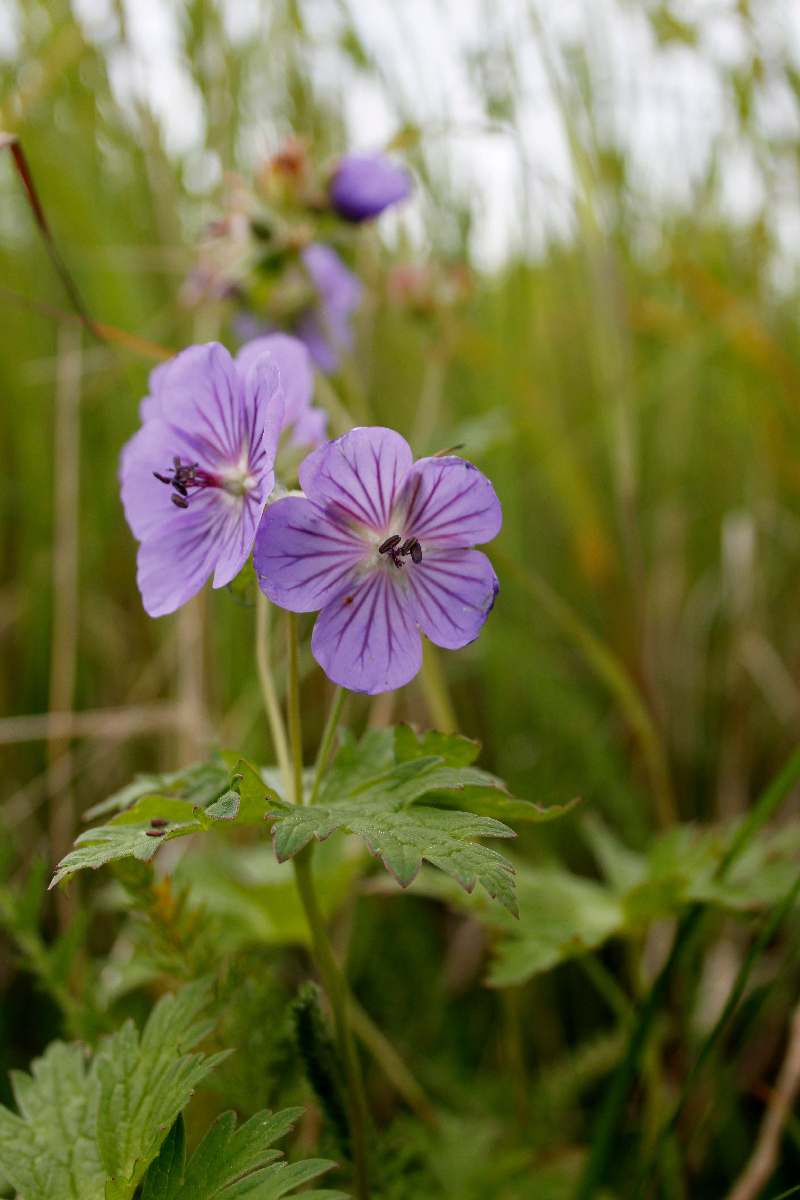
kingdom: Plantae
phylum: Tracheophyta
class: Magnoliopsida
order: Geraniales
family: Geraniaceae
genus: Geranium
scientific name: Geranium erianthum
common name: Northern crane's-bill
